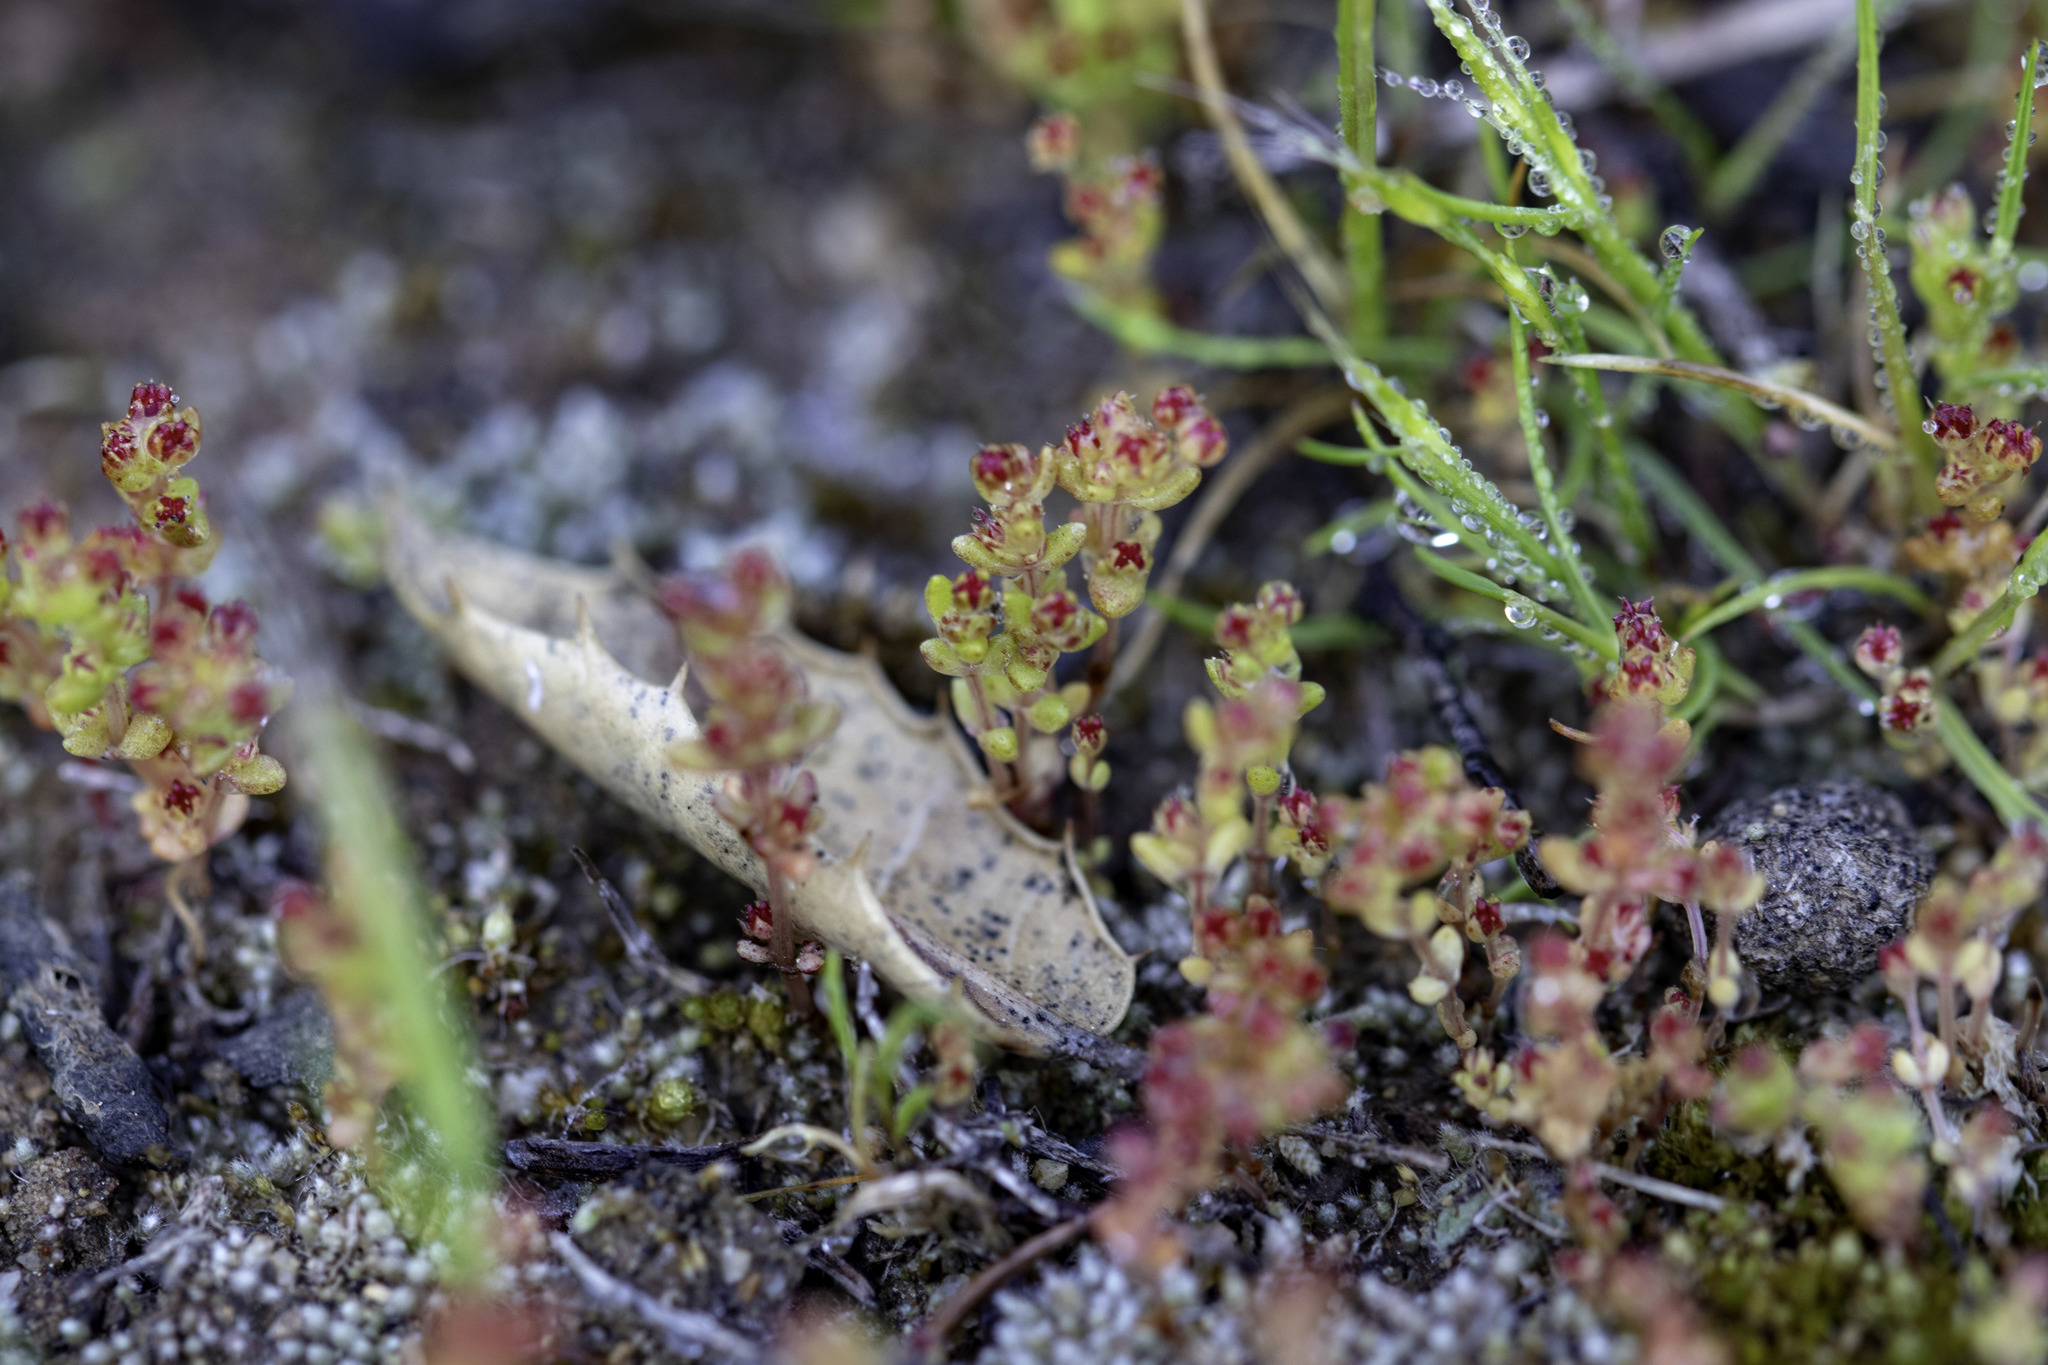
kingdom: Plantae
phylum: Tracheophyta
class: Magnoliopsida
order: Saxifragales
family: Crassulaceae
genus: Crassula
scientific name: Crassula connata
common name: Erect pygmyweed
